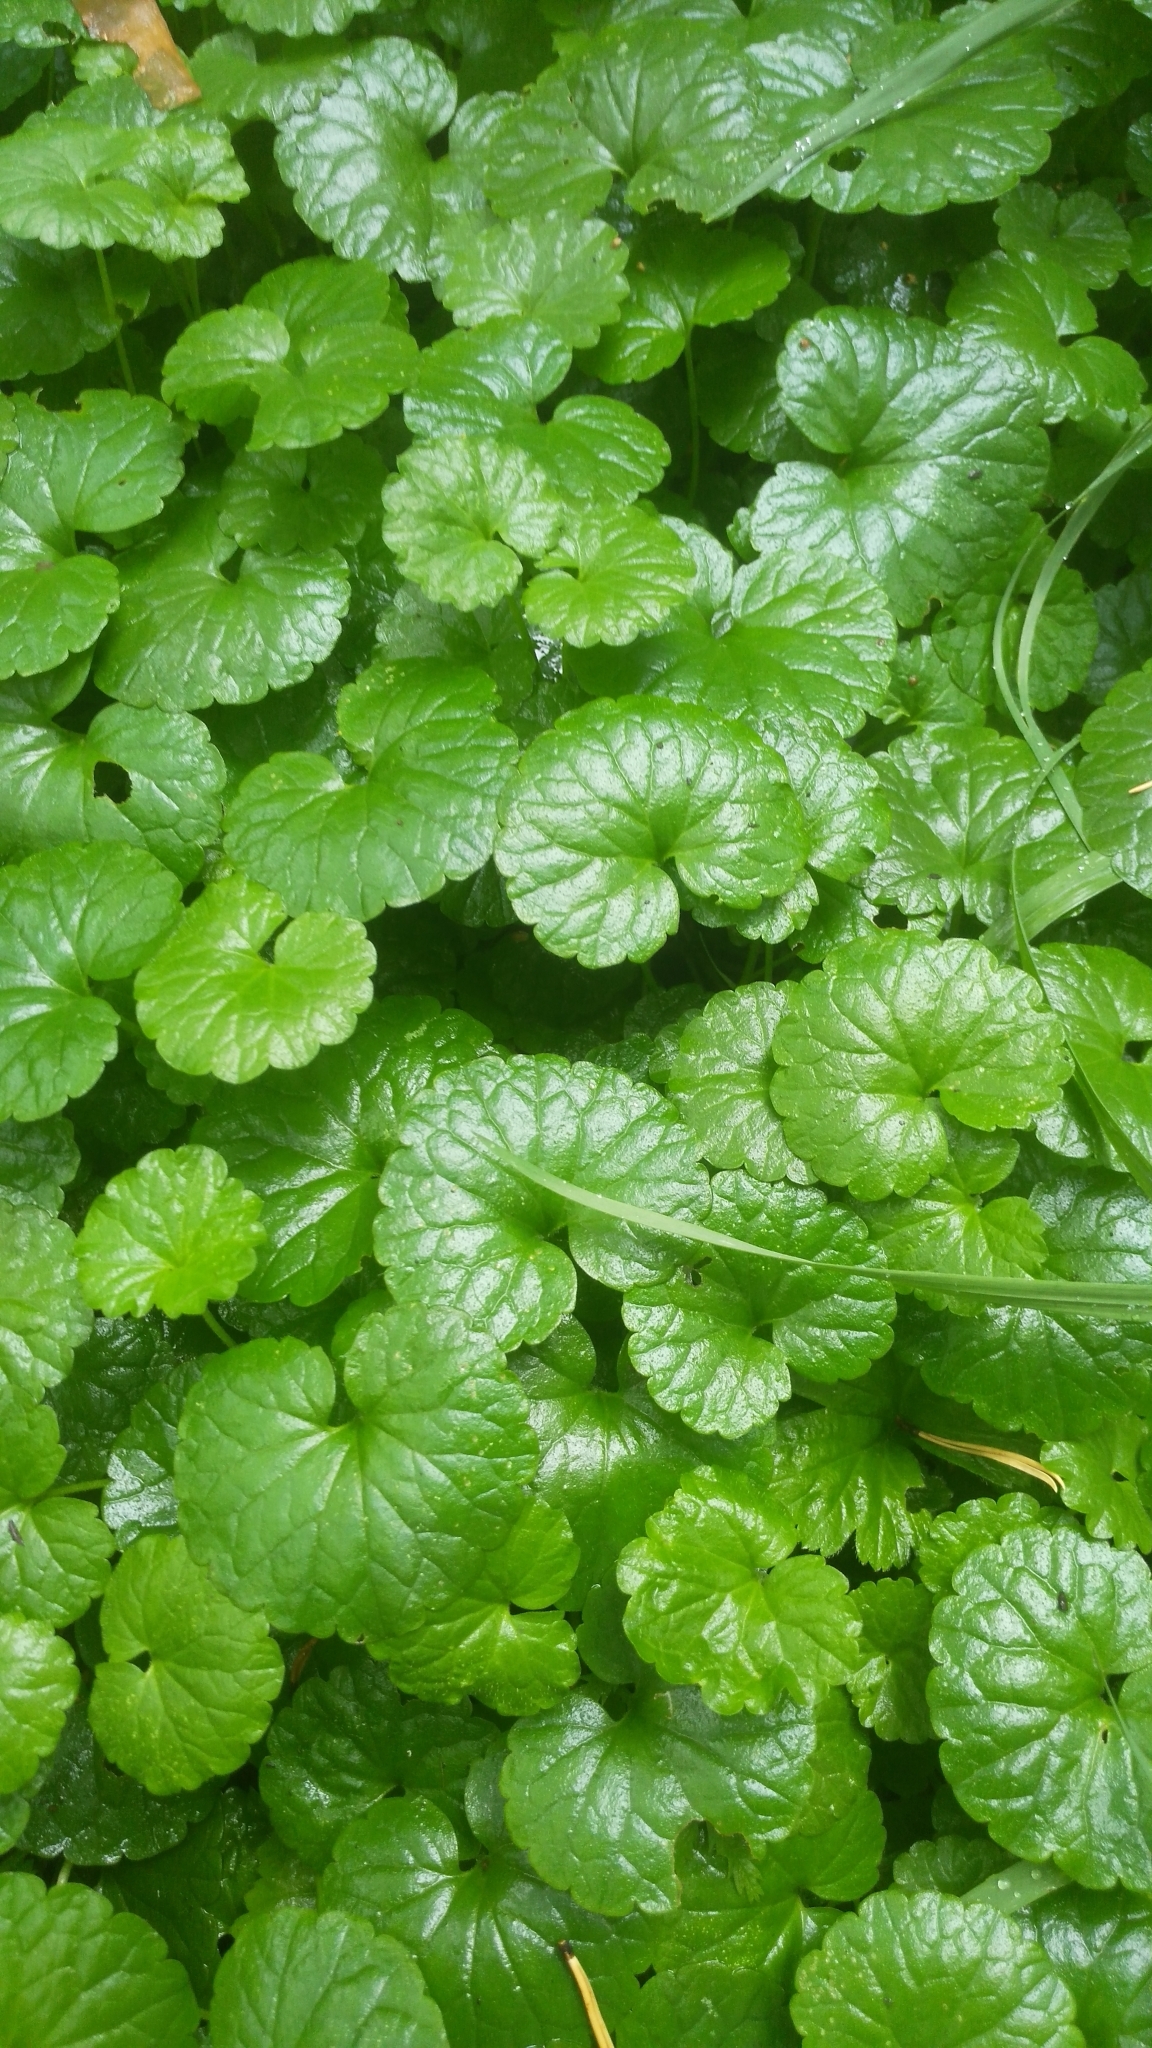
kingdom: Plantae
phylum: Tracheophyta
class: Magnoliopsida
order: Lamiales
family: Lamiaceae
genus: Glechoma
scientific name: Glechoma hederacea
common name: Ground ivy
